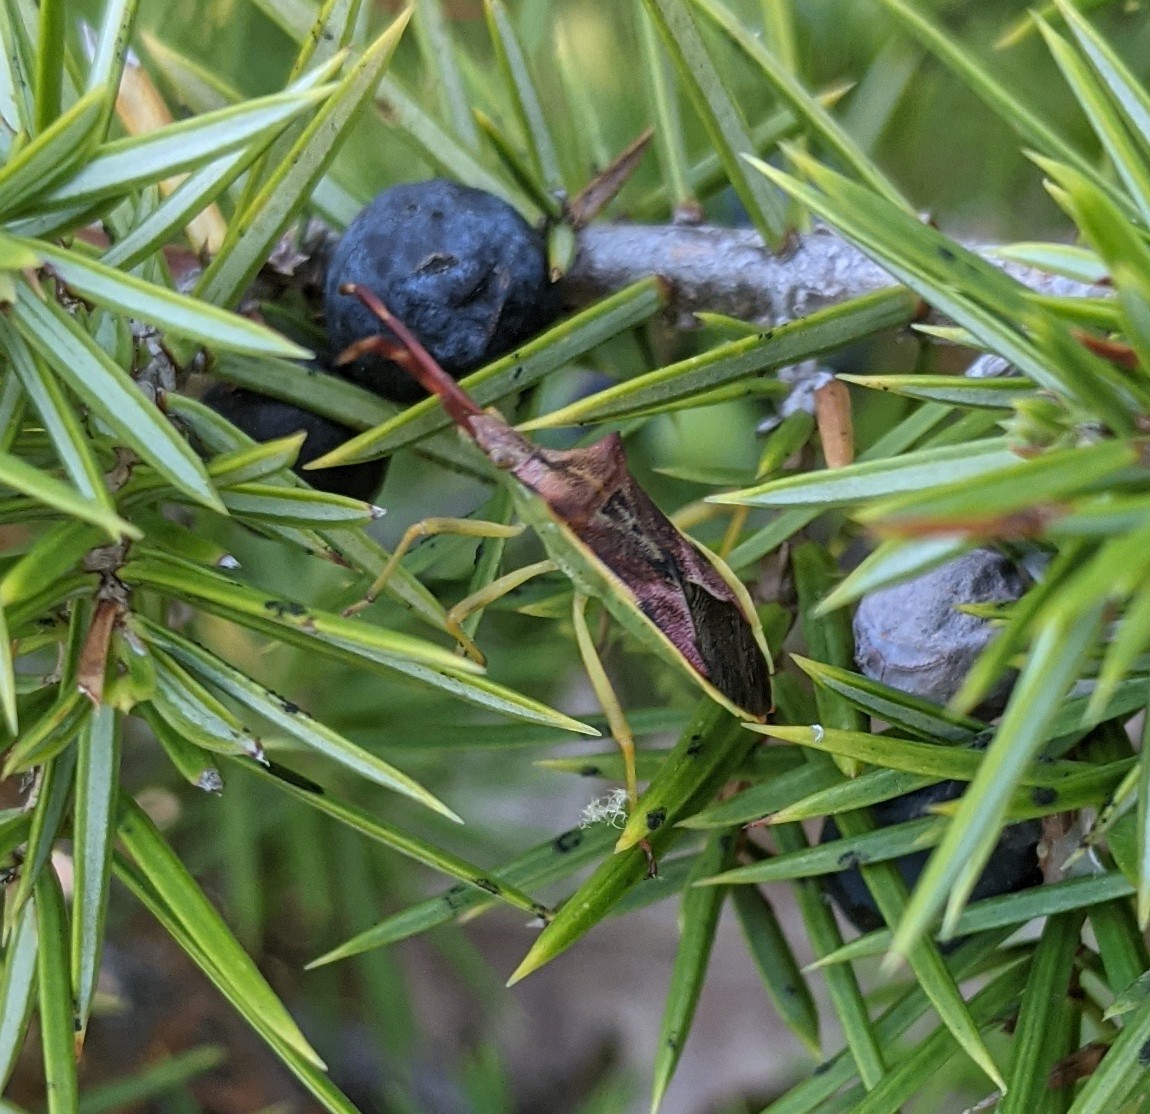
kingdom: Animalia
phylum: Arthropoda
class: Insecta
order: Hemiptera
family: Coreidae
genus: Gonocerus
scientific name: Gonocerus juniperi
